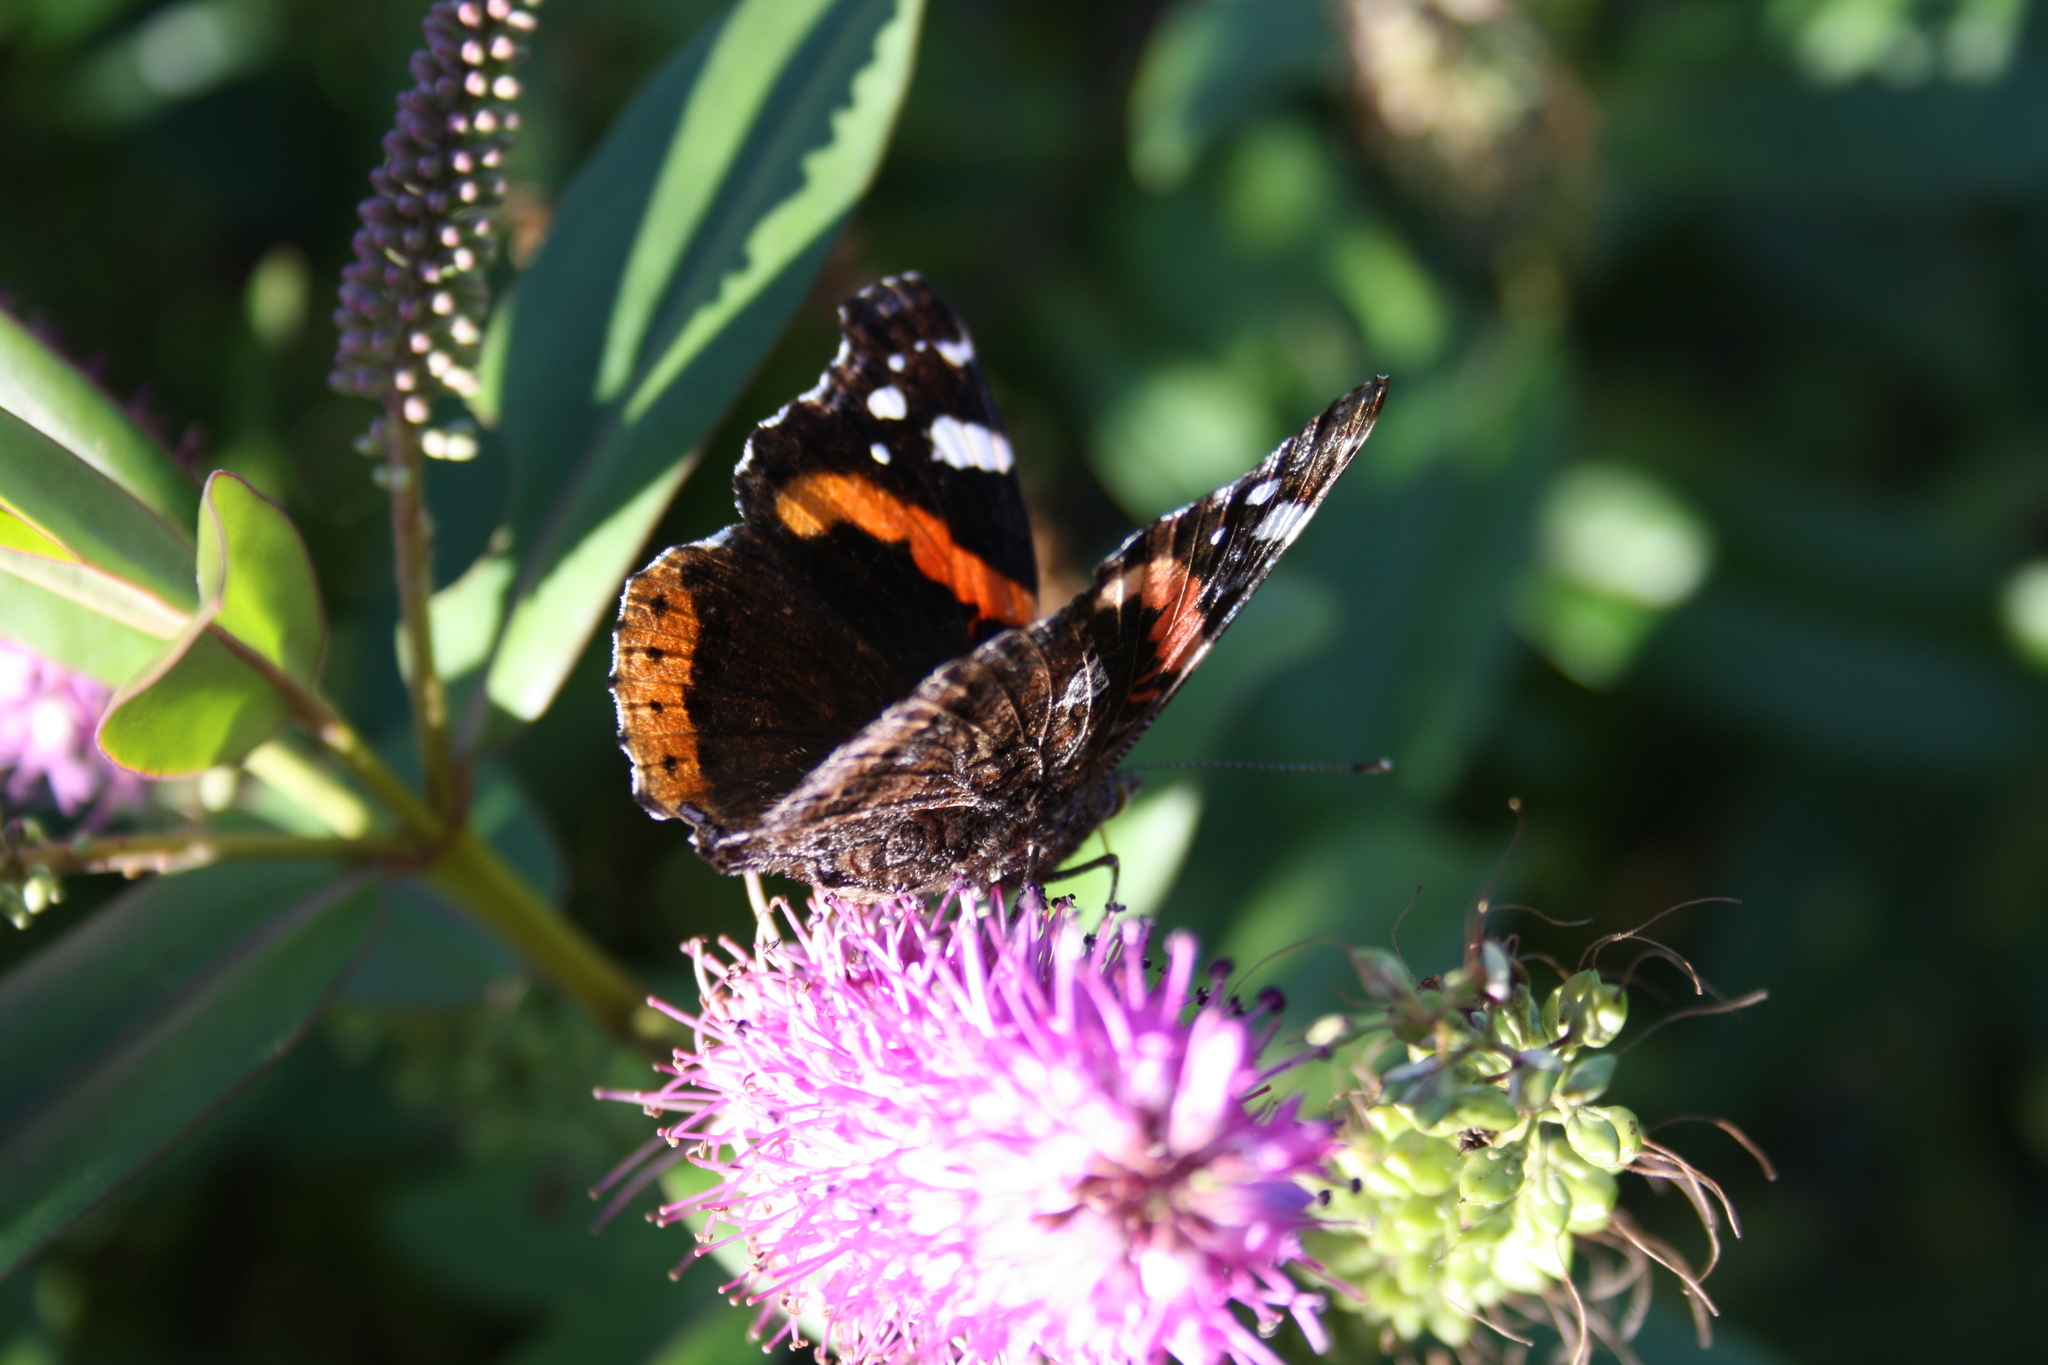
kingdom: Animalia
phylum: Arthropoda
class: Insecta
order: Lepidoptera
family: Nymphalidae
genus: Vanessa
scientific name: Vanessa atalanta
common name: Red admiral
